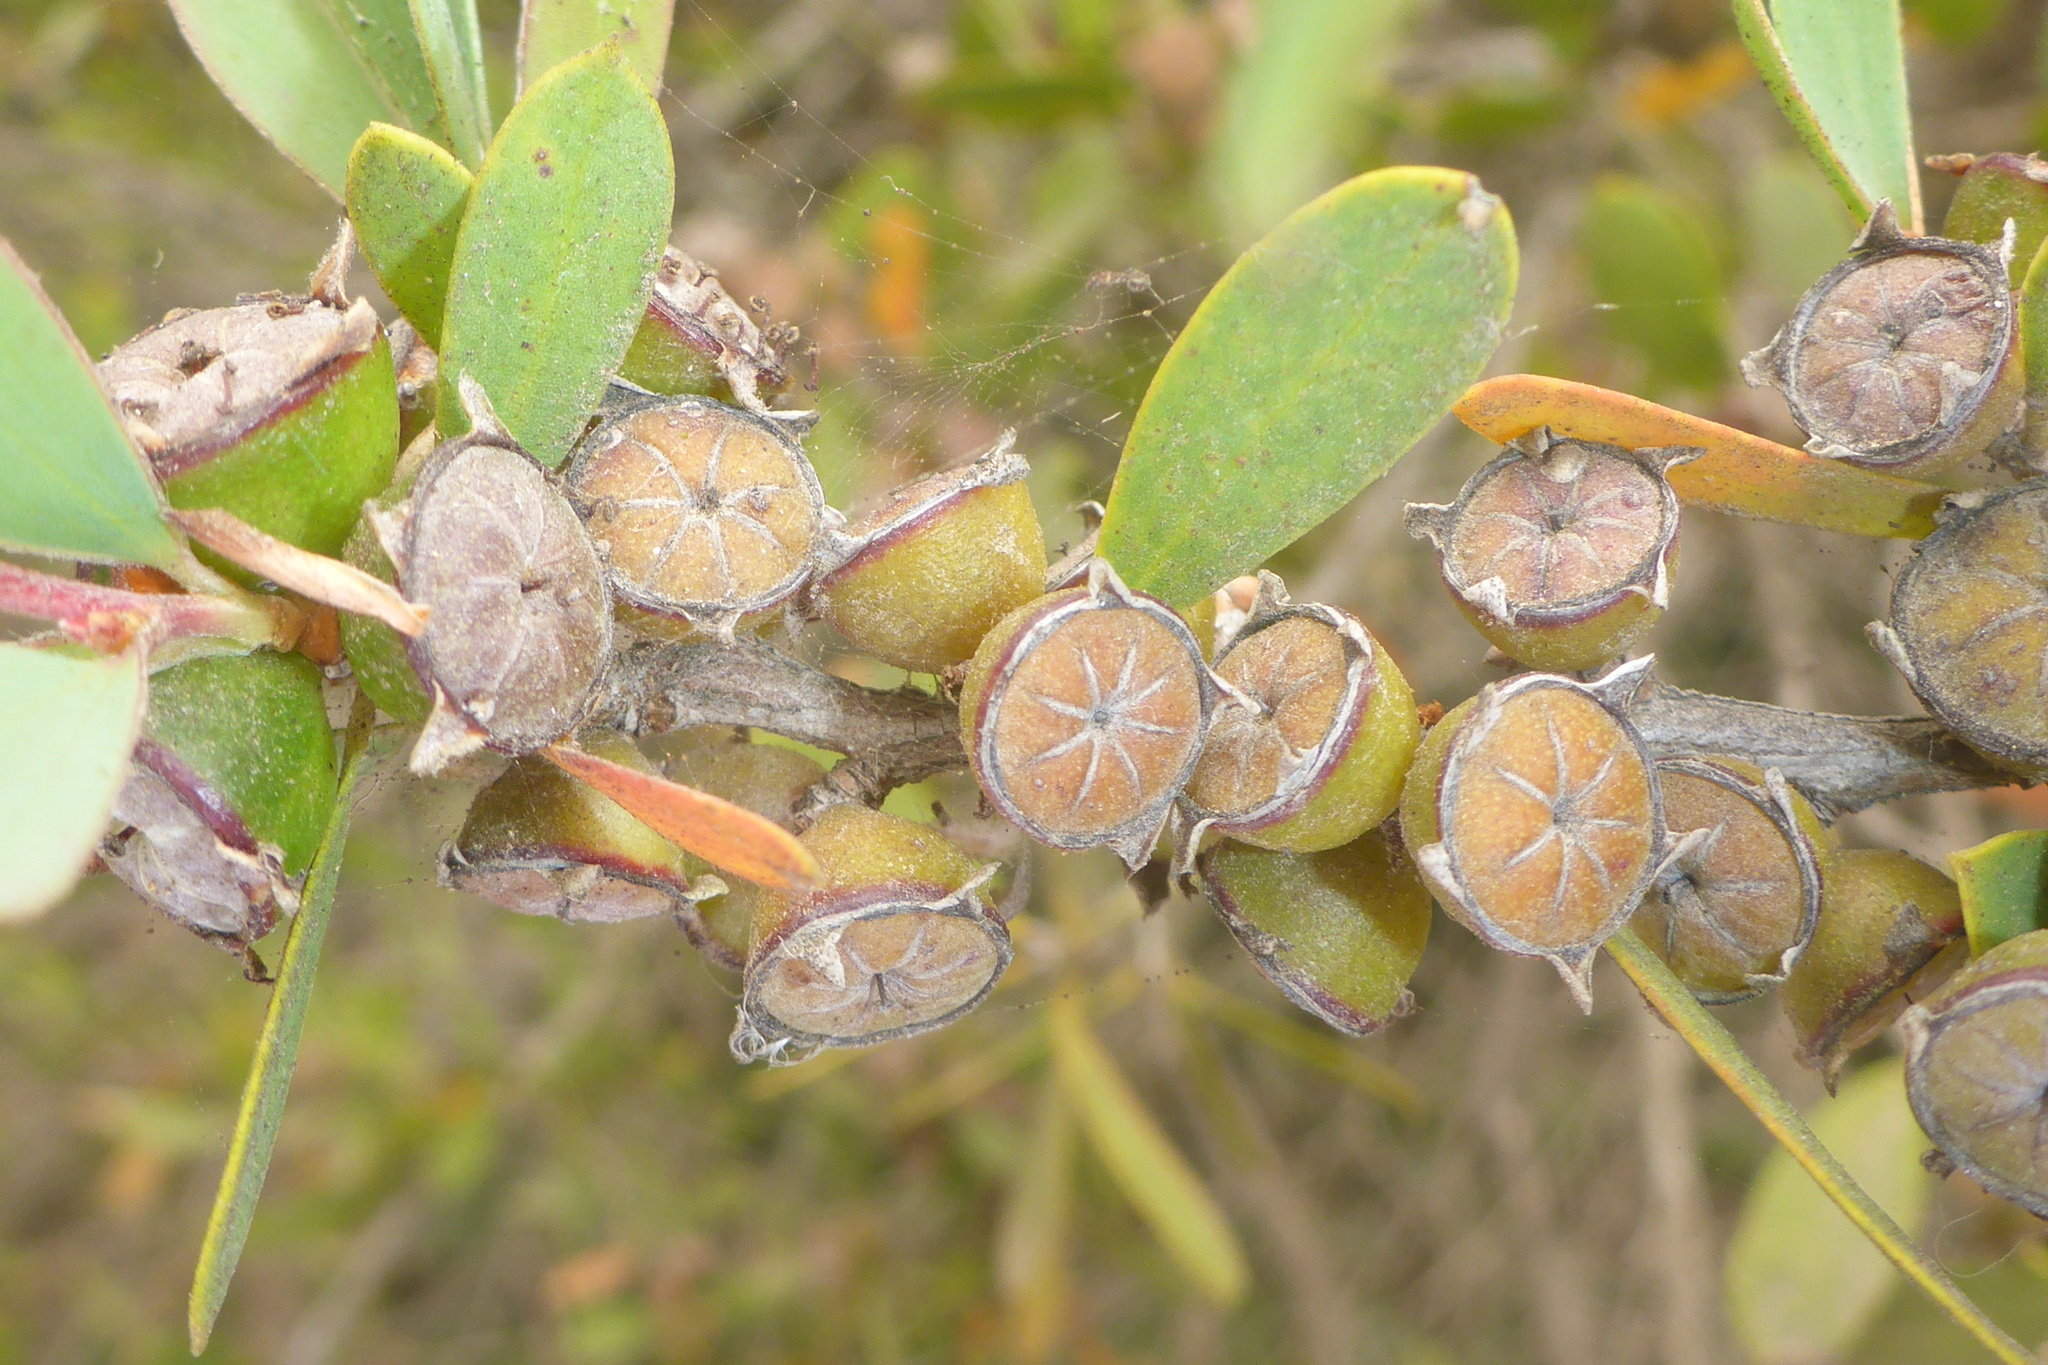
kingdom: Plantae
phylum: Tracheophyta
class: Magnoliopsida
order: Myrtales
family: Myrtaceae
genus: Leptospermum
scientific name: Leptospermum laevigatum
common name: Australian teatree
